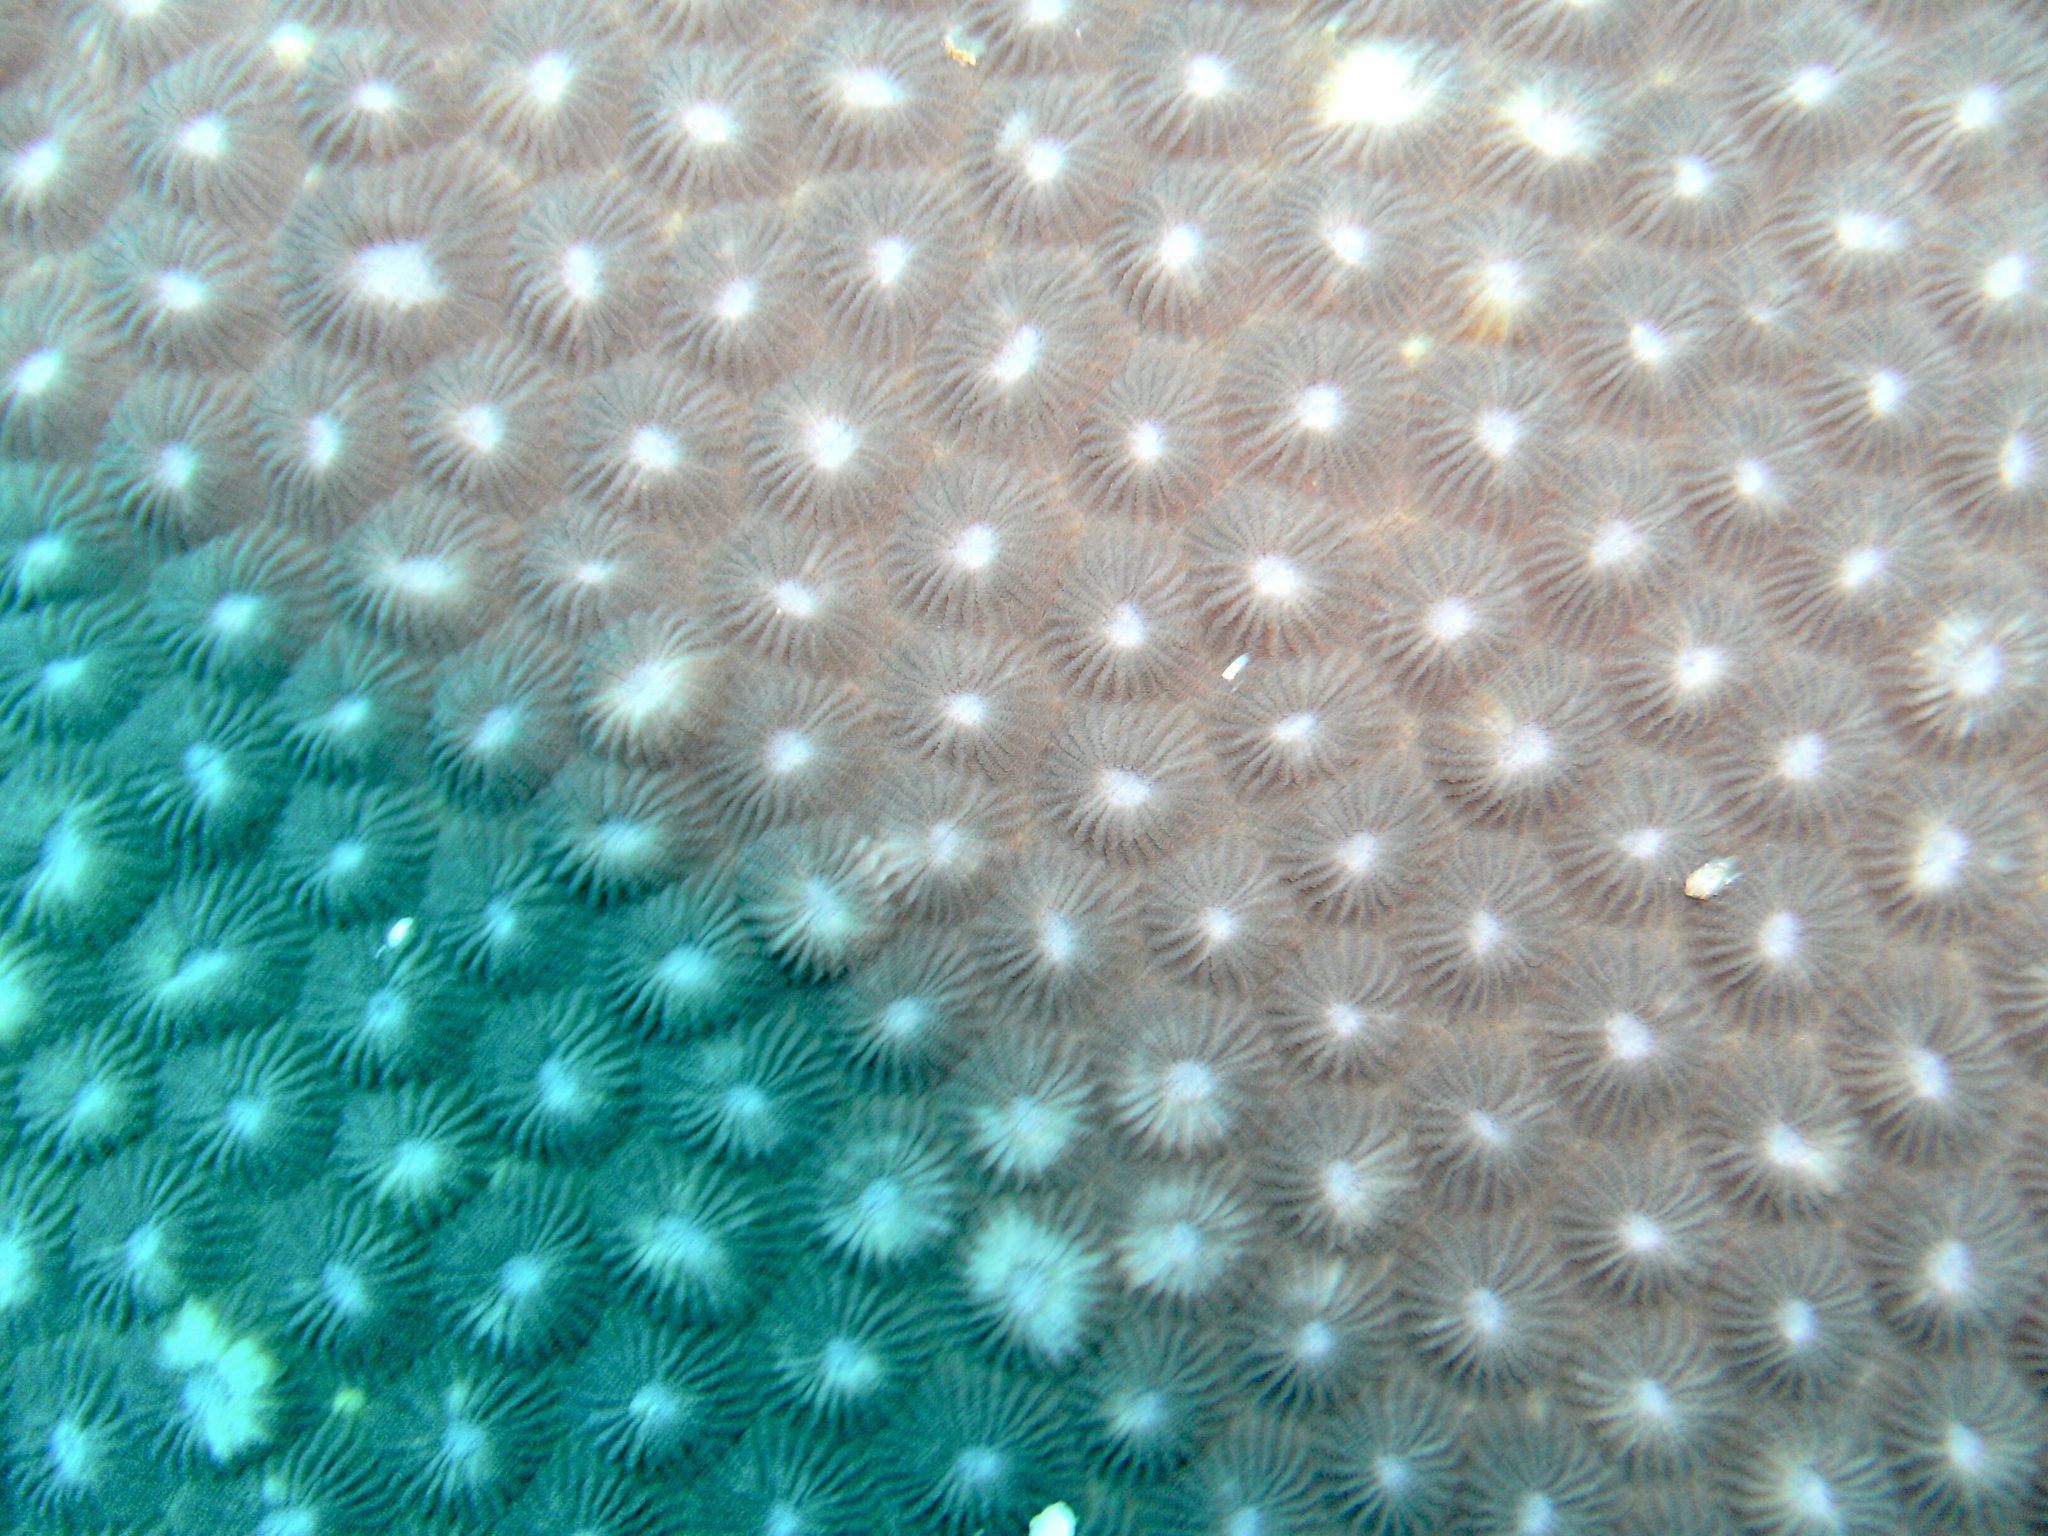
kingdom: Animalia
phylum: Cnidaria
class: Anthozoa
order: Scleractinia
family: Diploastraeidae
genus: Diploastrea
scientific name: Diploastrea heliopora
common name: Double-star coral
